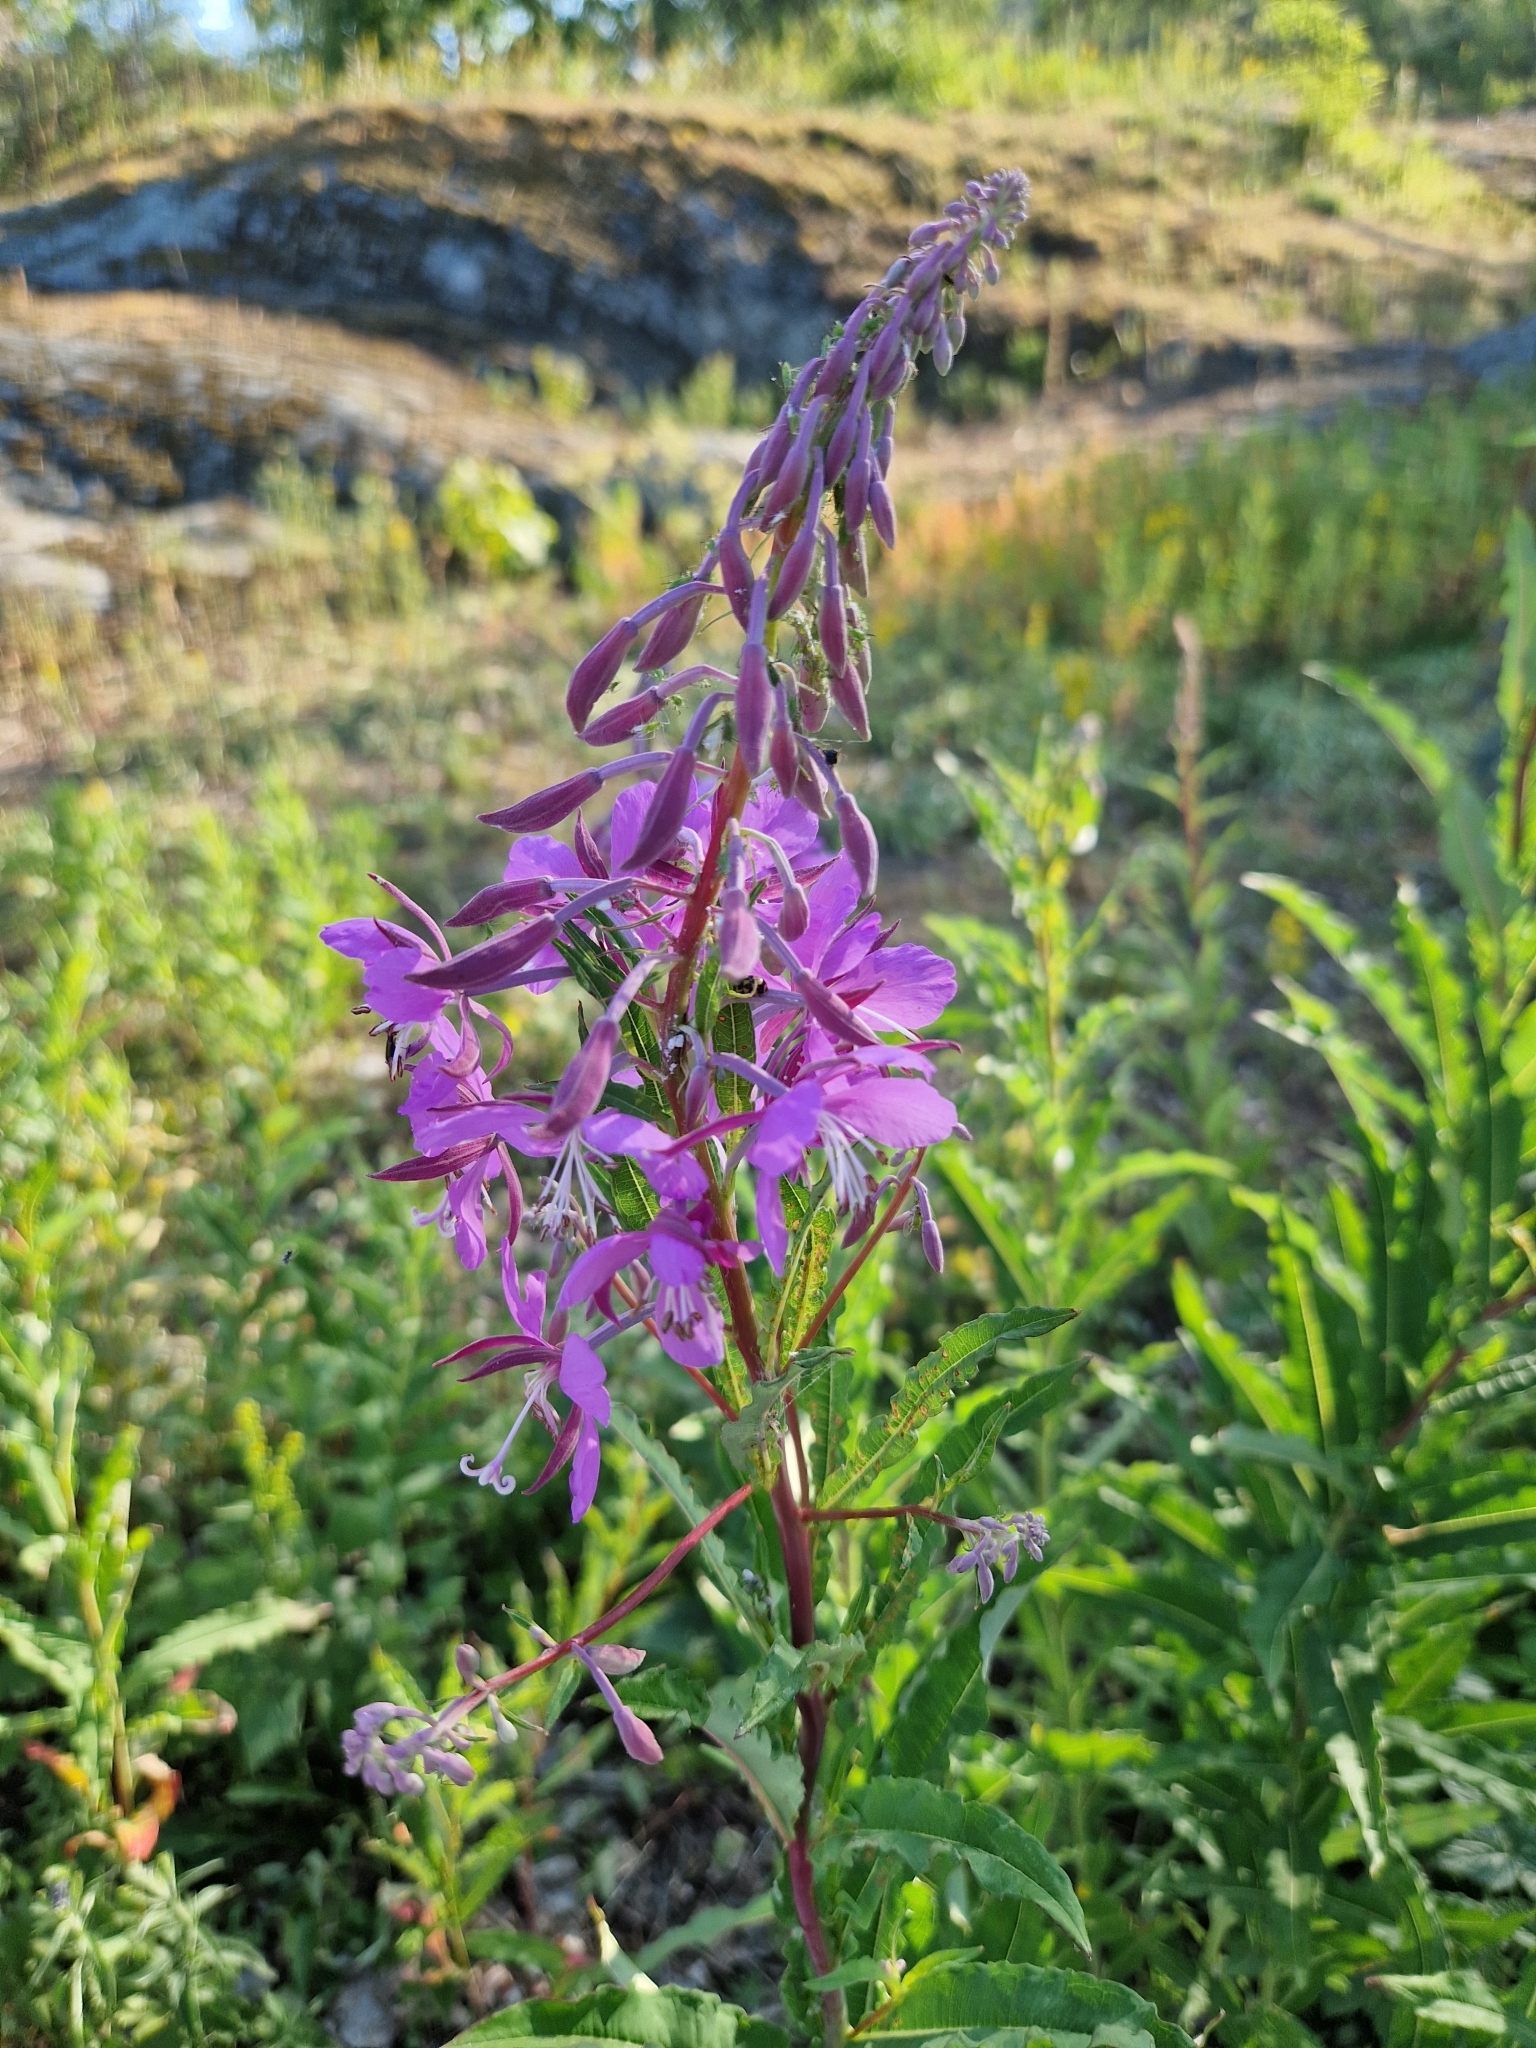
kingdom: Plantae
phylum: Tracheophyta
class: Magnoliopsida
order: Myrtales
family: Onagraceae
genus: Chamaenerion
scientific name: Chamaenerion angustifolium
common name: Fireweed
